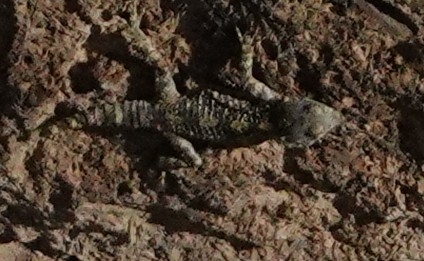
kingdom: Animalia
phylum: Chordata
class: Squamata
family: Agamidae
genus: Stellagama
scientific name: Stellagama stellio
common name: Starred agama
